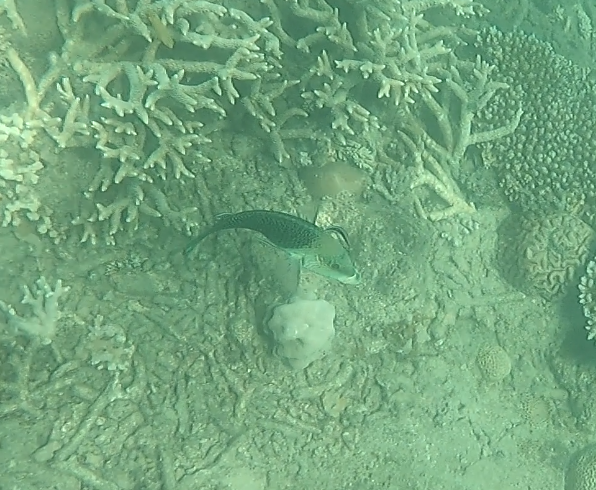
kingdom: Animalia
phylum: Chordata
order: Perciformes
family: Labridae
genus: Hemigymnus
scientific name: Hemigymnus melapterus
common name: Blackeye thicklip
